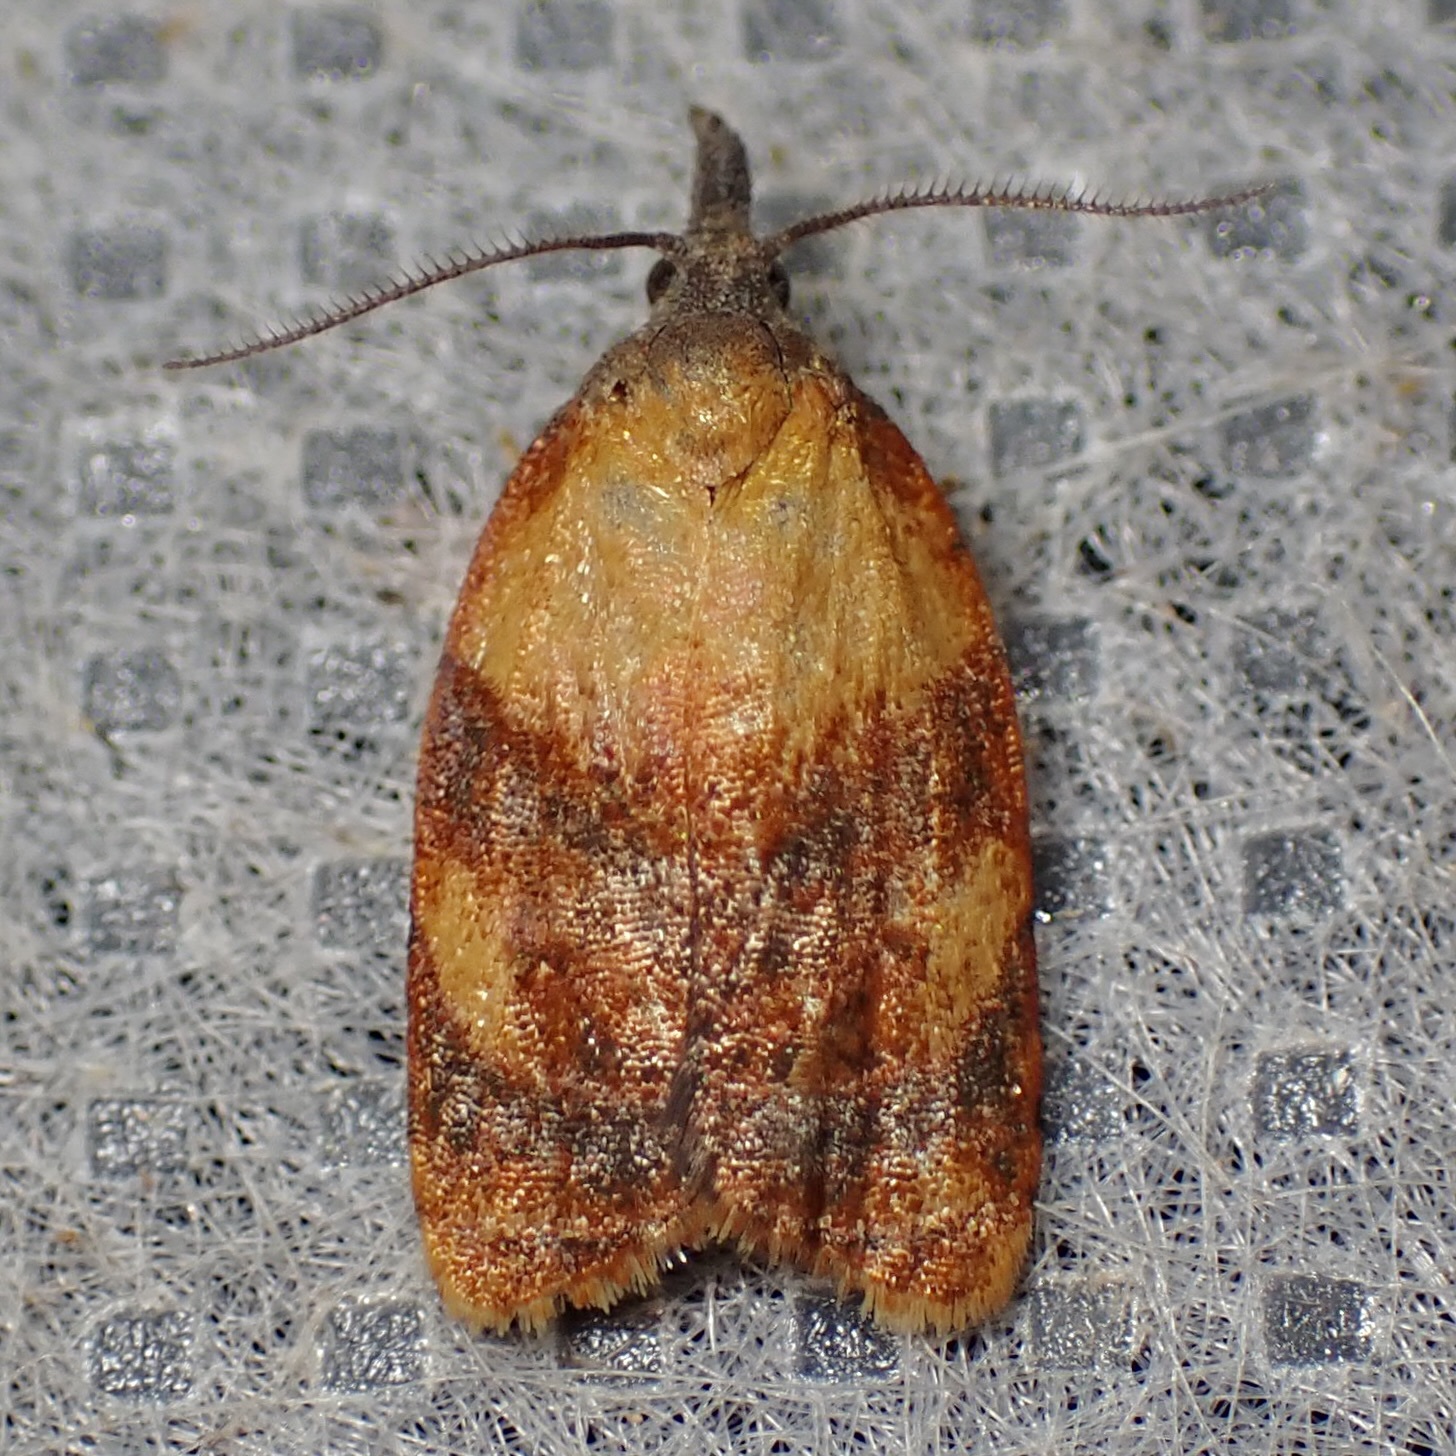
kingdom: Animalia
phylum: Arthropoda
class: Insecta
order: Lepidoptera
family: Tortricidae
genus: Platynota
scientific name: Platynota stultana
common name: Omnivorous leafroller
